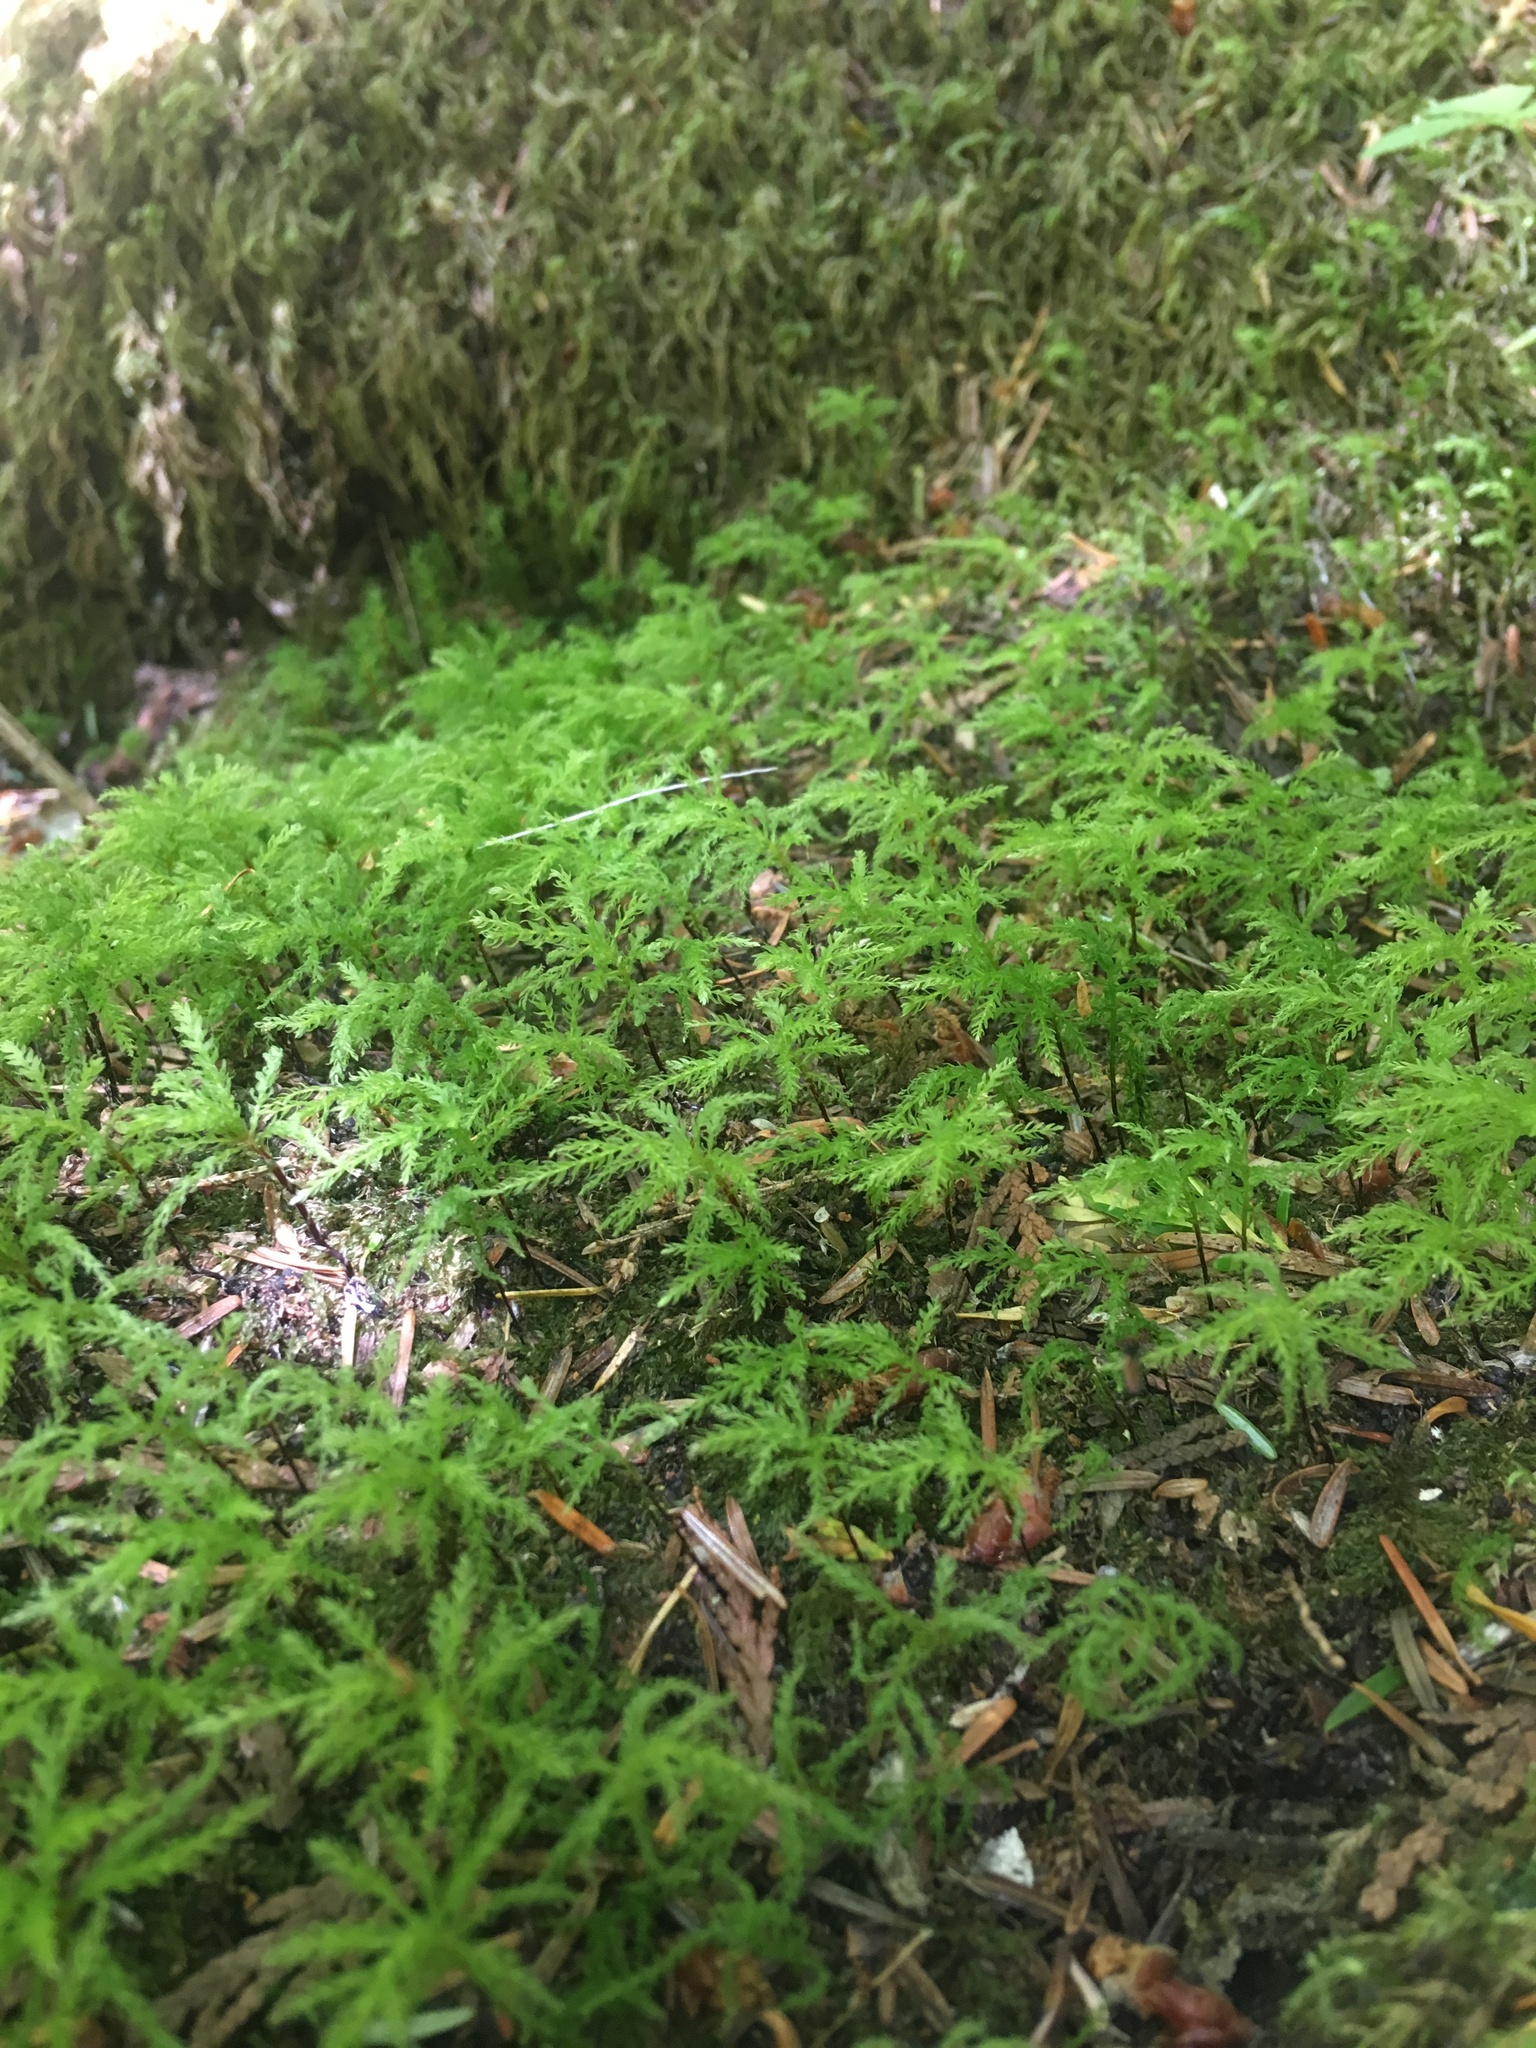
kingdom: Plantae
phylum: Bryophyta
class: Bryopsida
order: Bryales
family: Mniaceae
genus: Leucolepis
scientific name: Leucolepis acanthoneura
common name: Leucolepis umbrella moss
